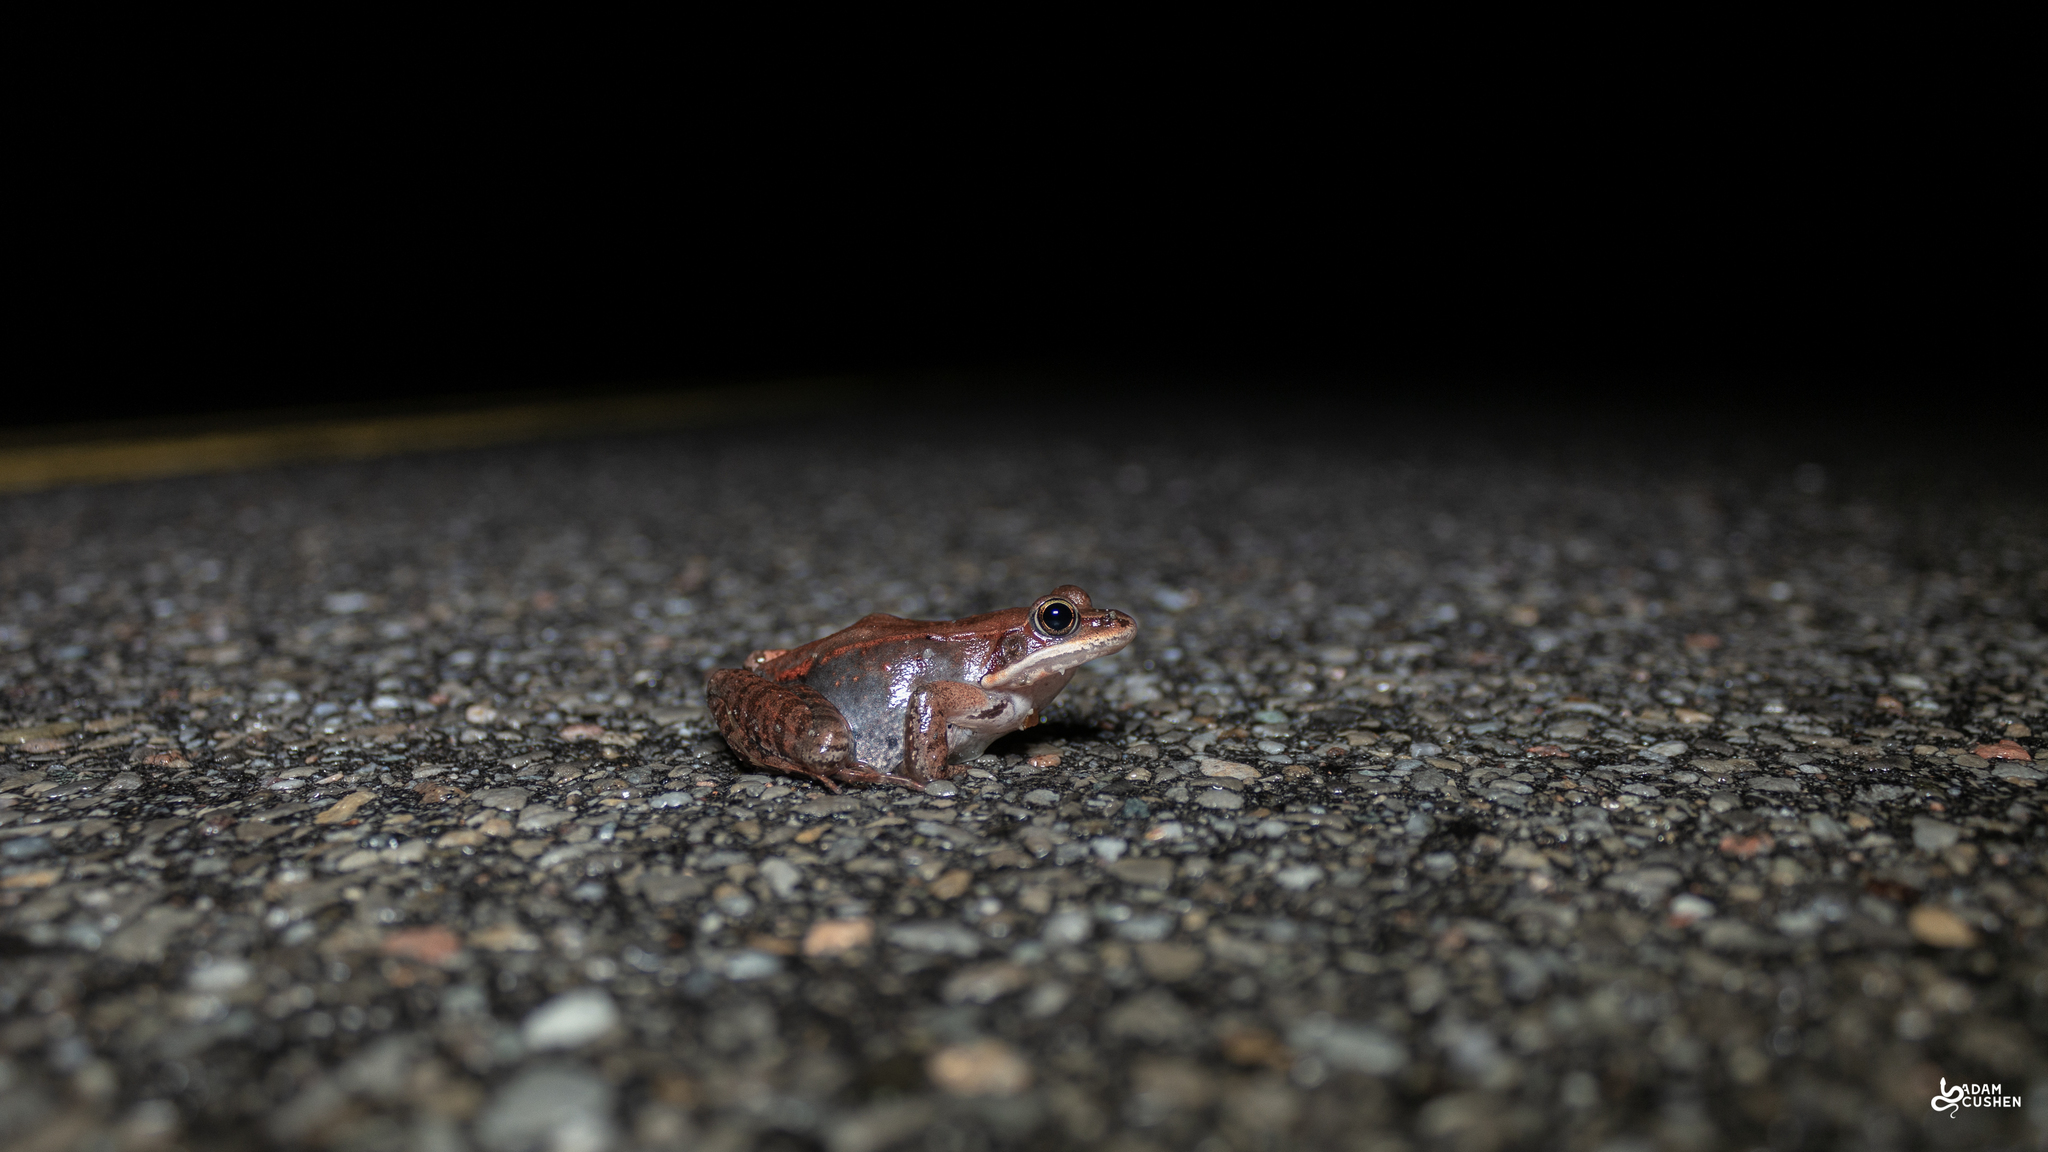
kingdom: Animalia
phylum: Chordata
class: Amphibia
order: Anura
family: Ranidae
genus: Lithobates
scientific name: Lithobates sylvaticus
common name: Wood frog
